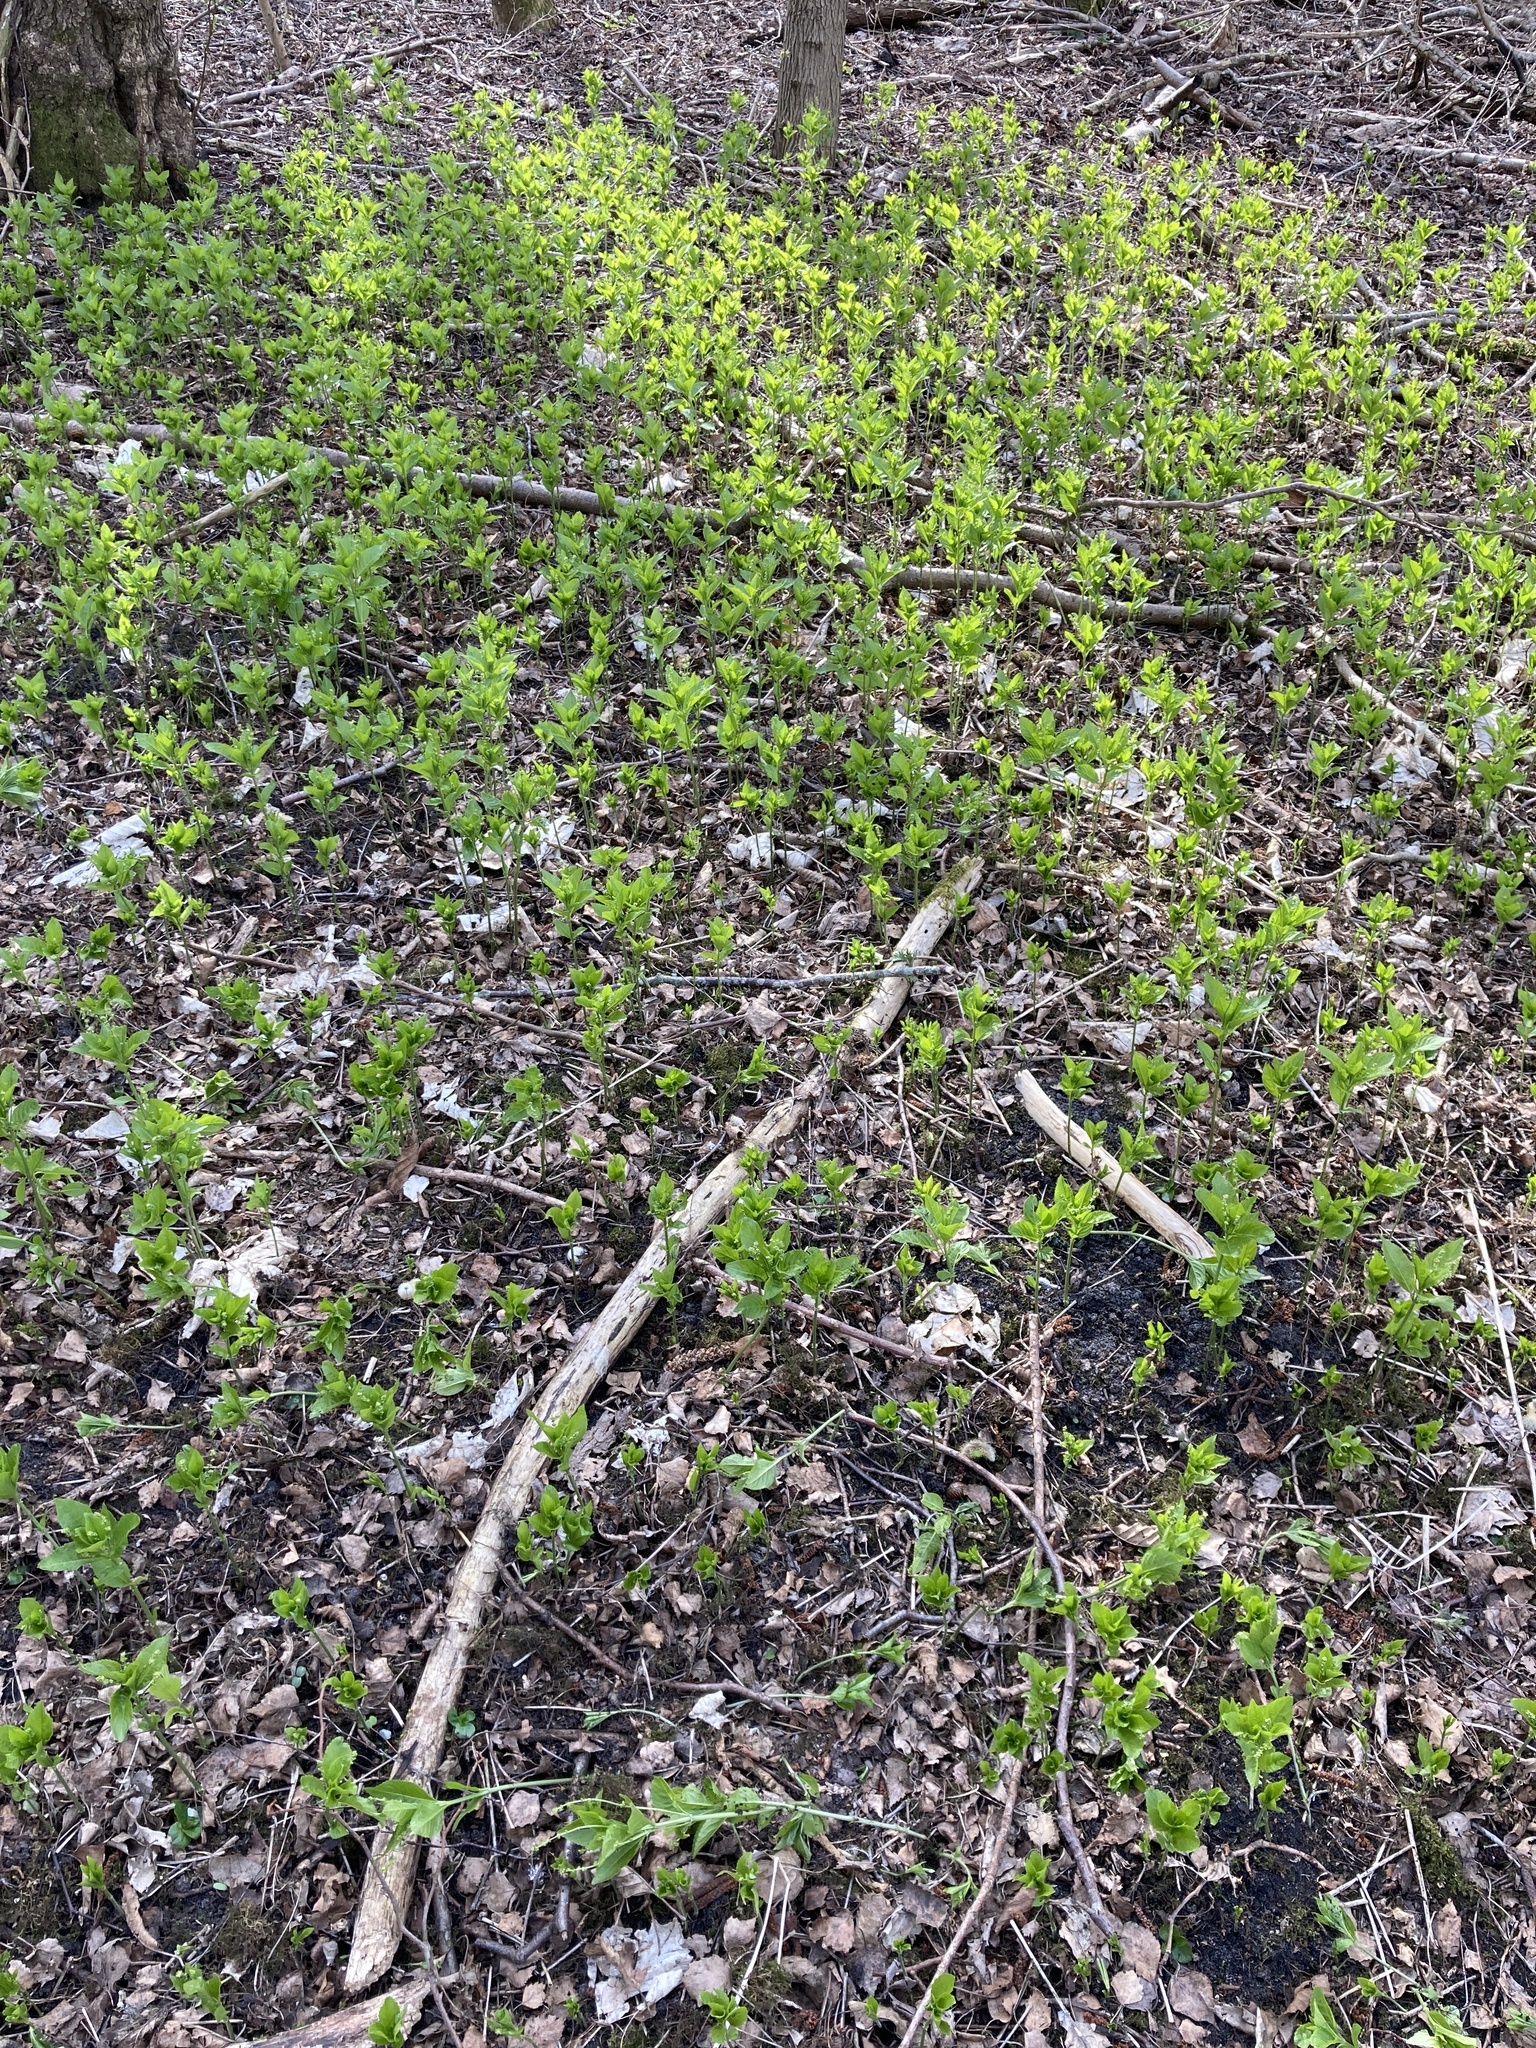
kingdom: Plantae
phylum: Tracheophyta
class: Magnoliopsida
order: Malpighiales
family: Euphorbiaceae
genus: Mercurialis
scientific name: Mercurialis perennis
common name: Dog mercury
